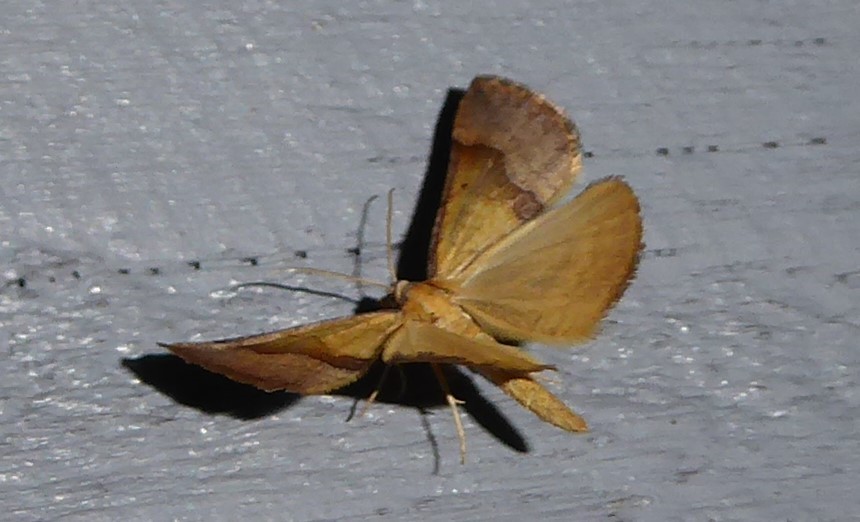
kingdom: Animalia
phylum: Arthropoda
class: Insecta
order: Lepidoptera
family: Geometridae
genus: Anachloris
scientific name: Anachloris subochraria
